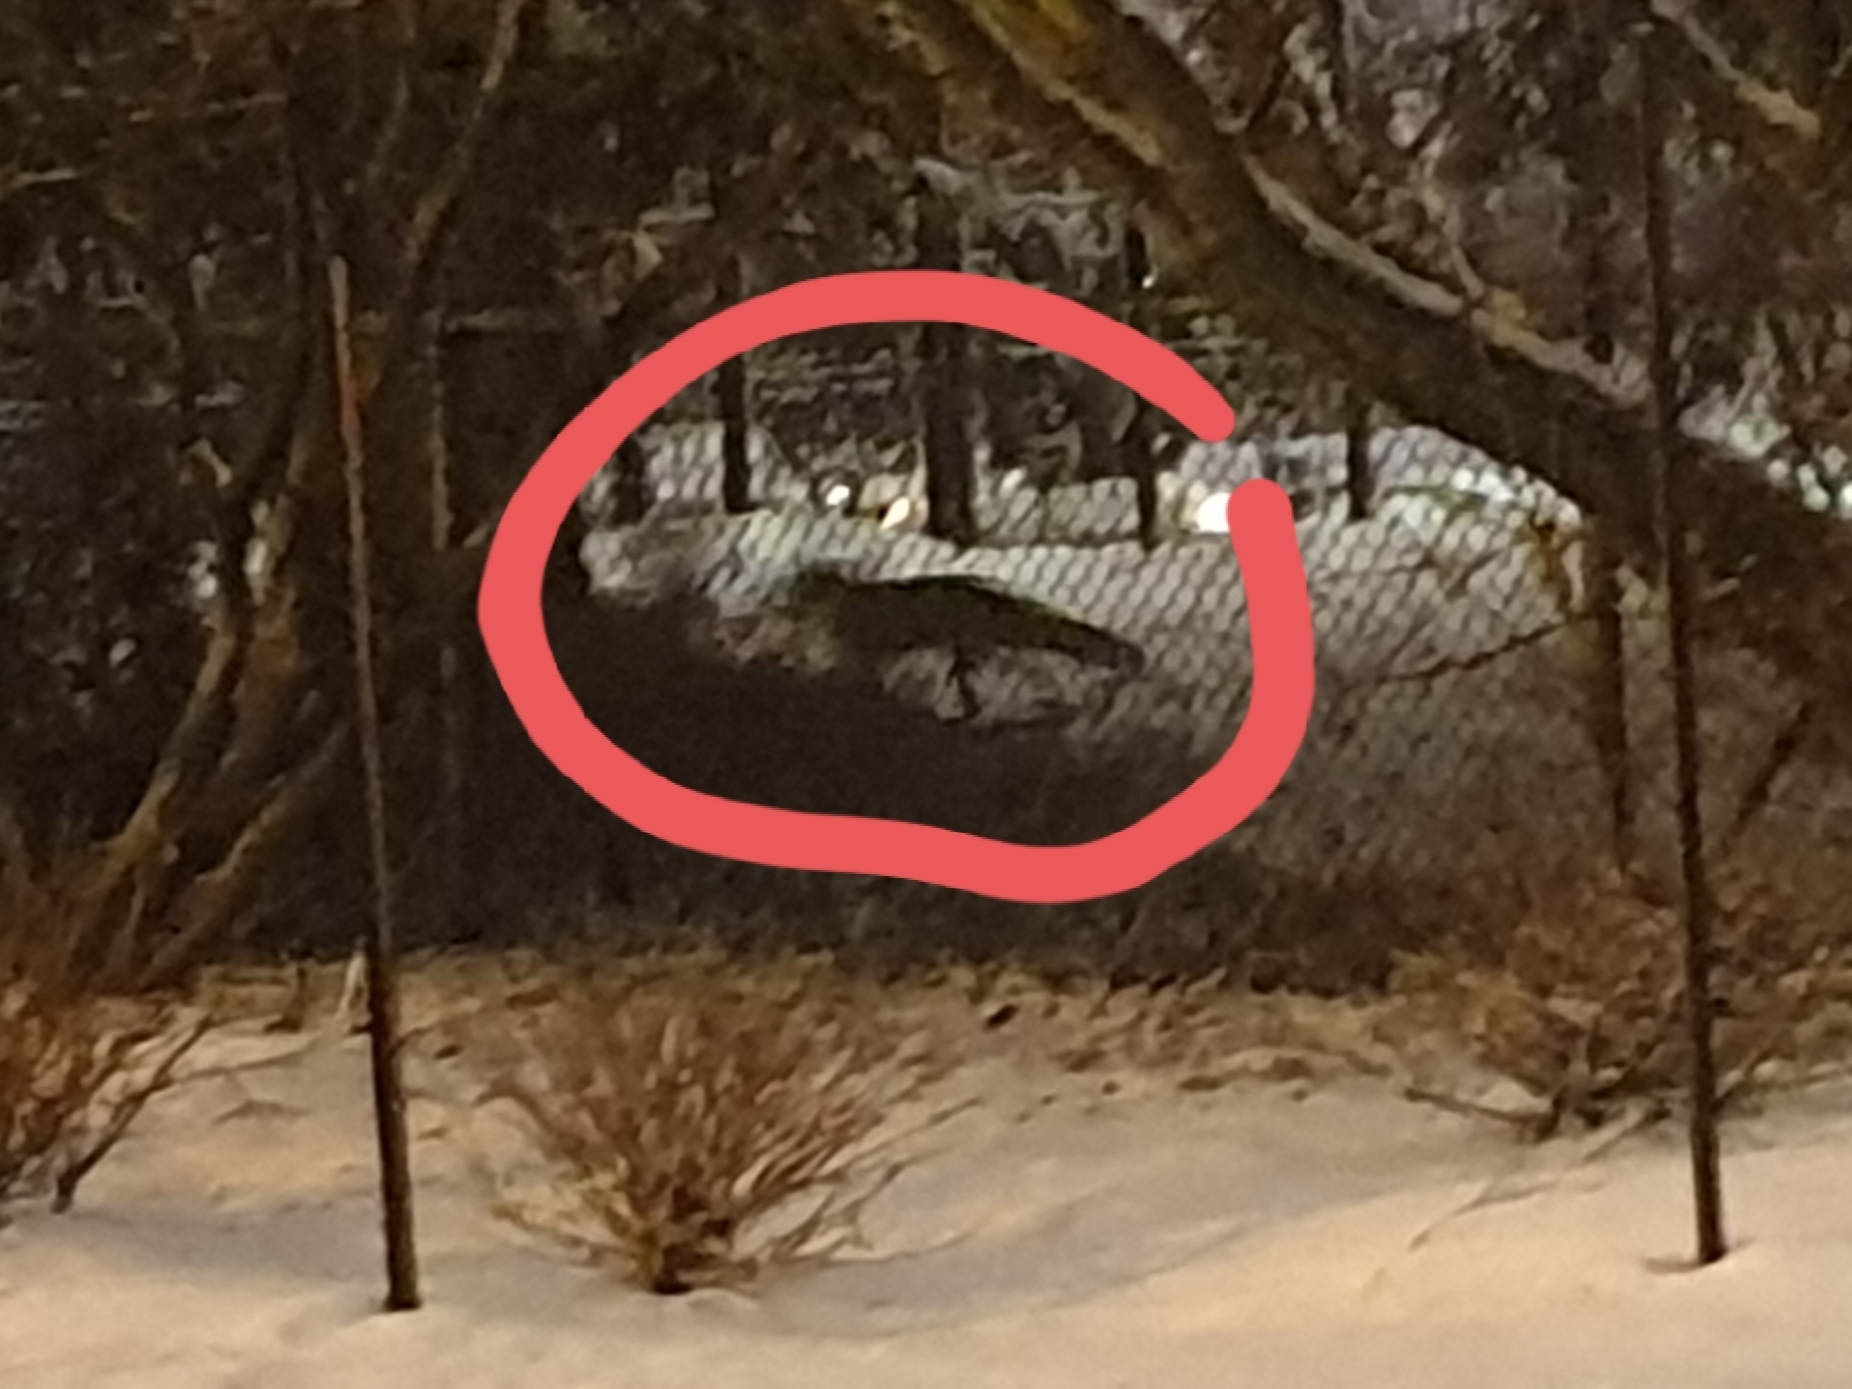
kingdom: Animalia
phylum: Chordata
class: Mammalia
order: Carnivora
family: Canidae
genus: Vulpes
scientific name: Vulpes vulpes
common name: Red fox
